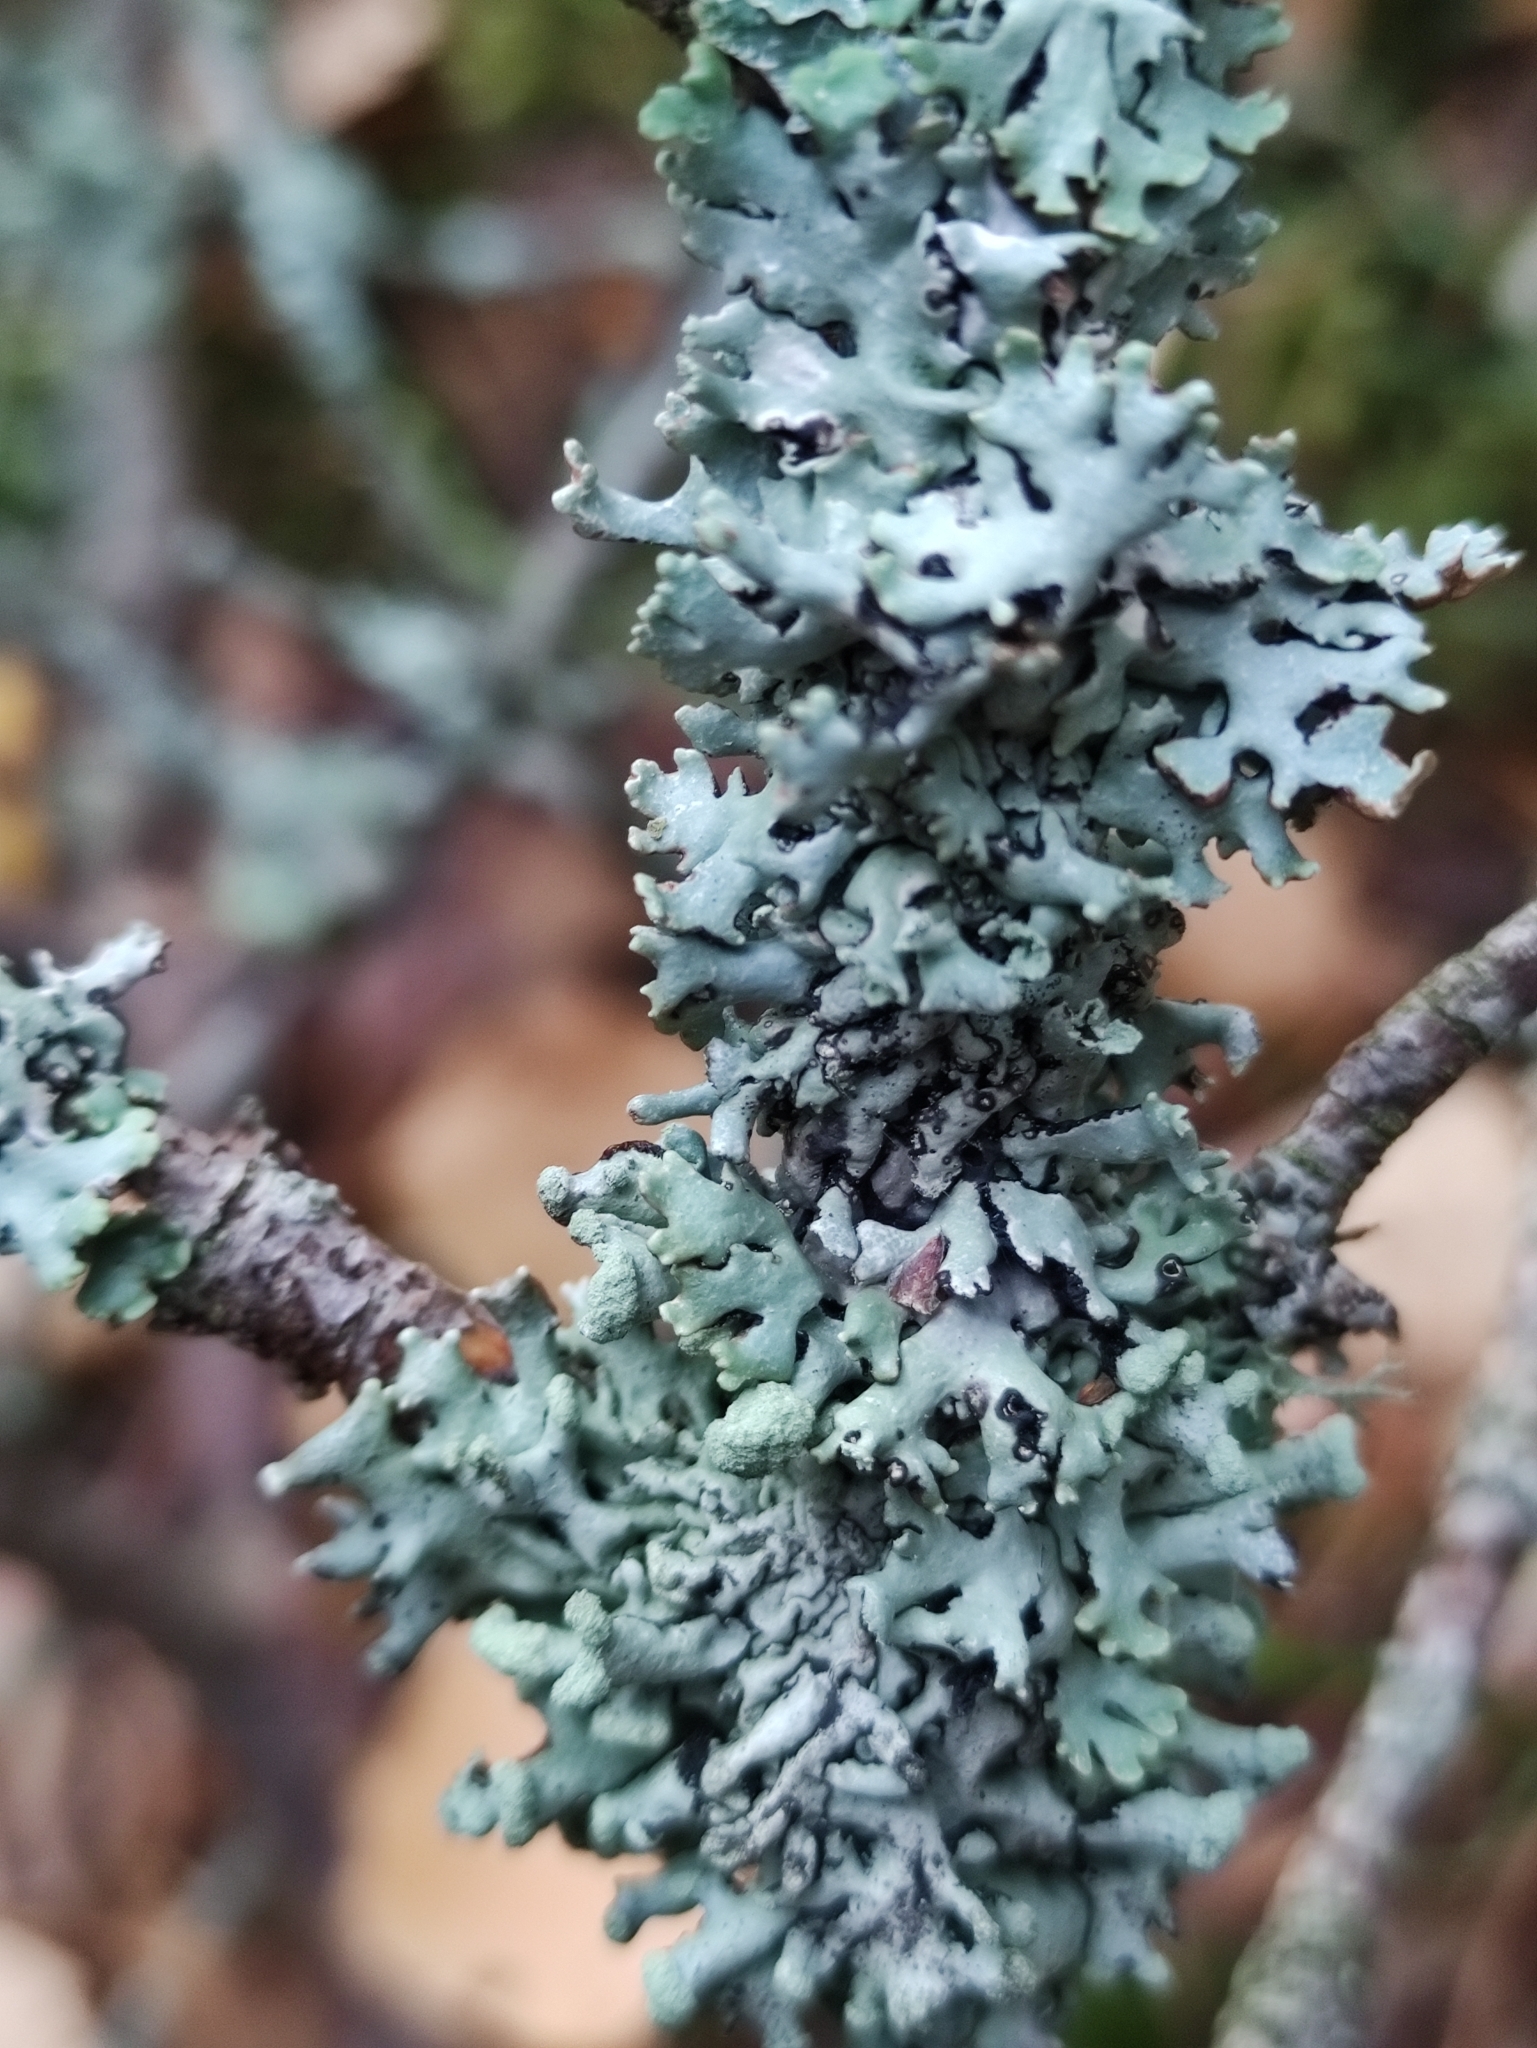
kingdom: Fungi
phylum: Ascomycota
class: Lecanoromycetes
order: Lecanorales
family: Parmeliaceae
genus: Hypogymnia
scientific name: Hypogymnia physodes
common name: Dark crottle
